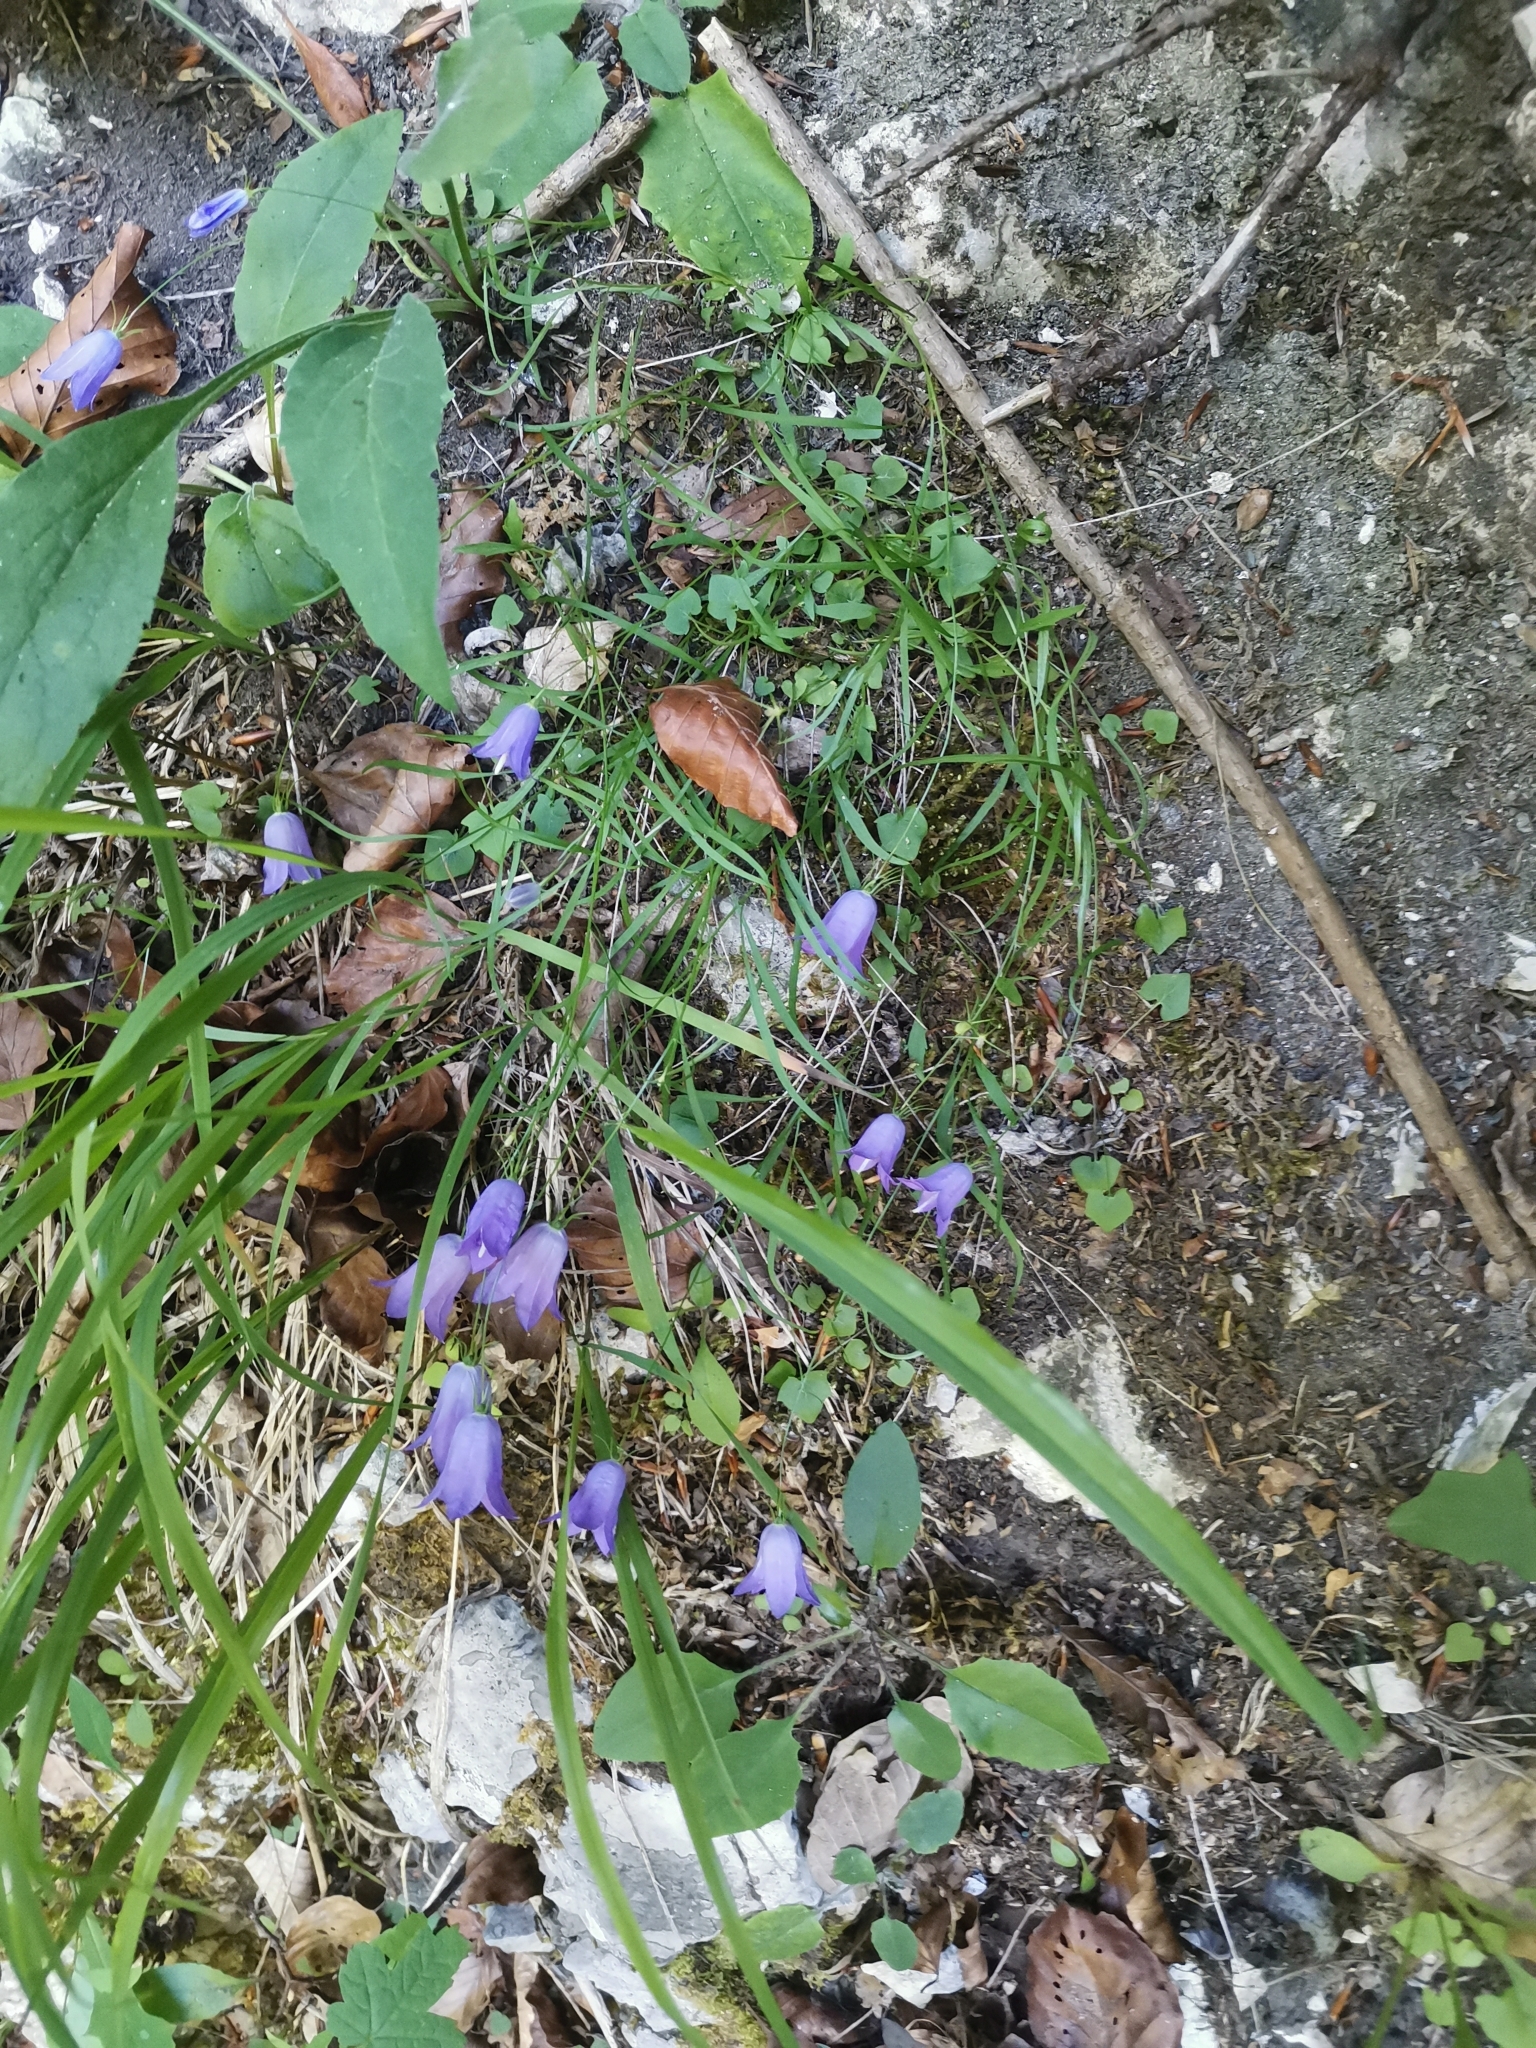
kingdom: Plantae
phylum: Tracheophyta
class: Magnoliopsida
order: Asterales
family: Campanulaceae
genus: Campanula
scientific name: Campanula justiniana
